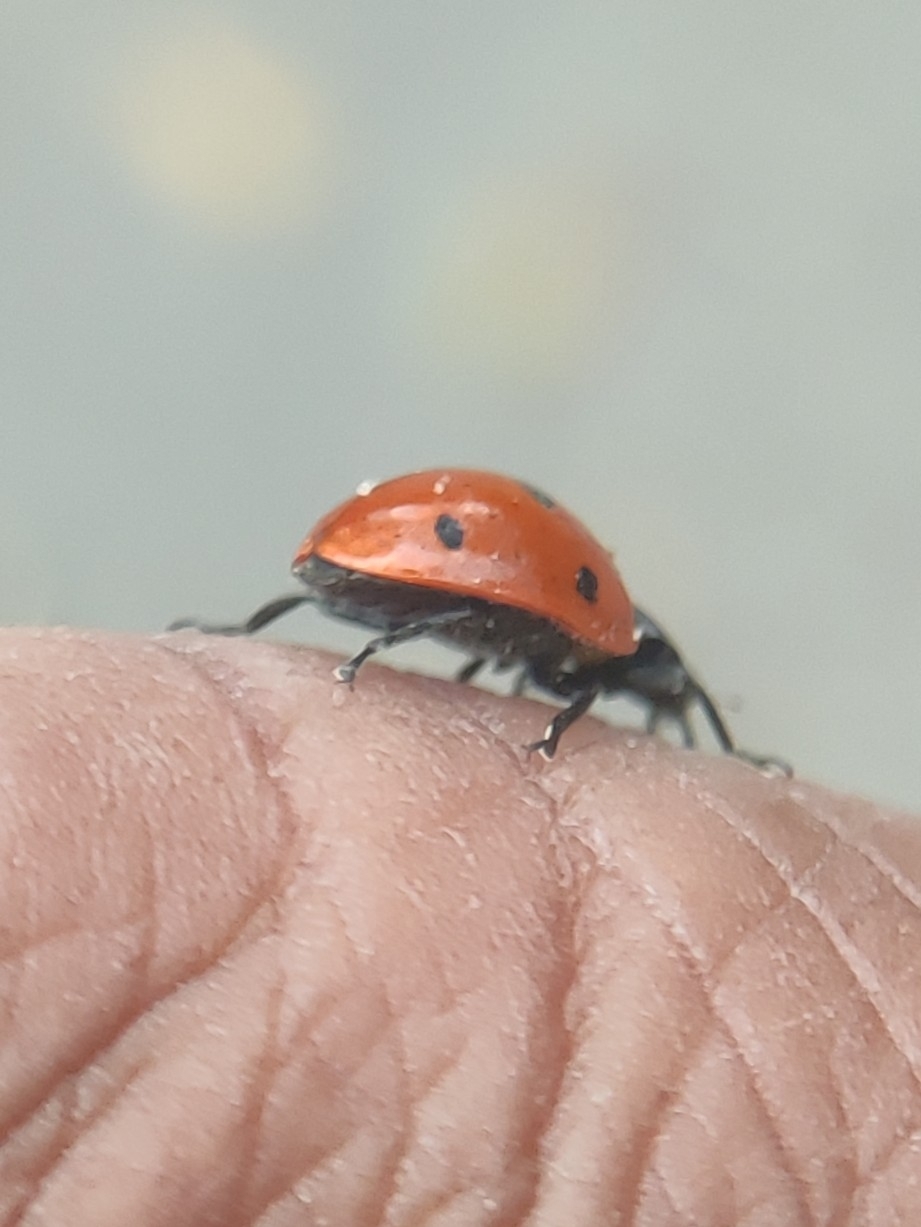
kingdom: Animalia
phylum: Arthropoda
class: Insecta
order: Coleoptera
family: Coccinellidae
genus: Coccinella
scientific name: Coccinella septempunctata
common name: Sevenspotted lady beetle
